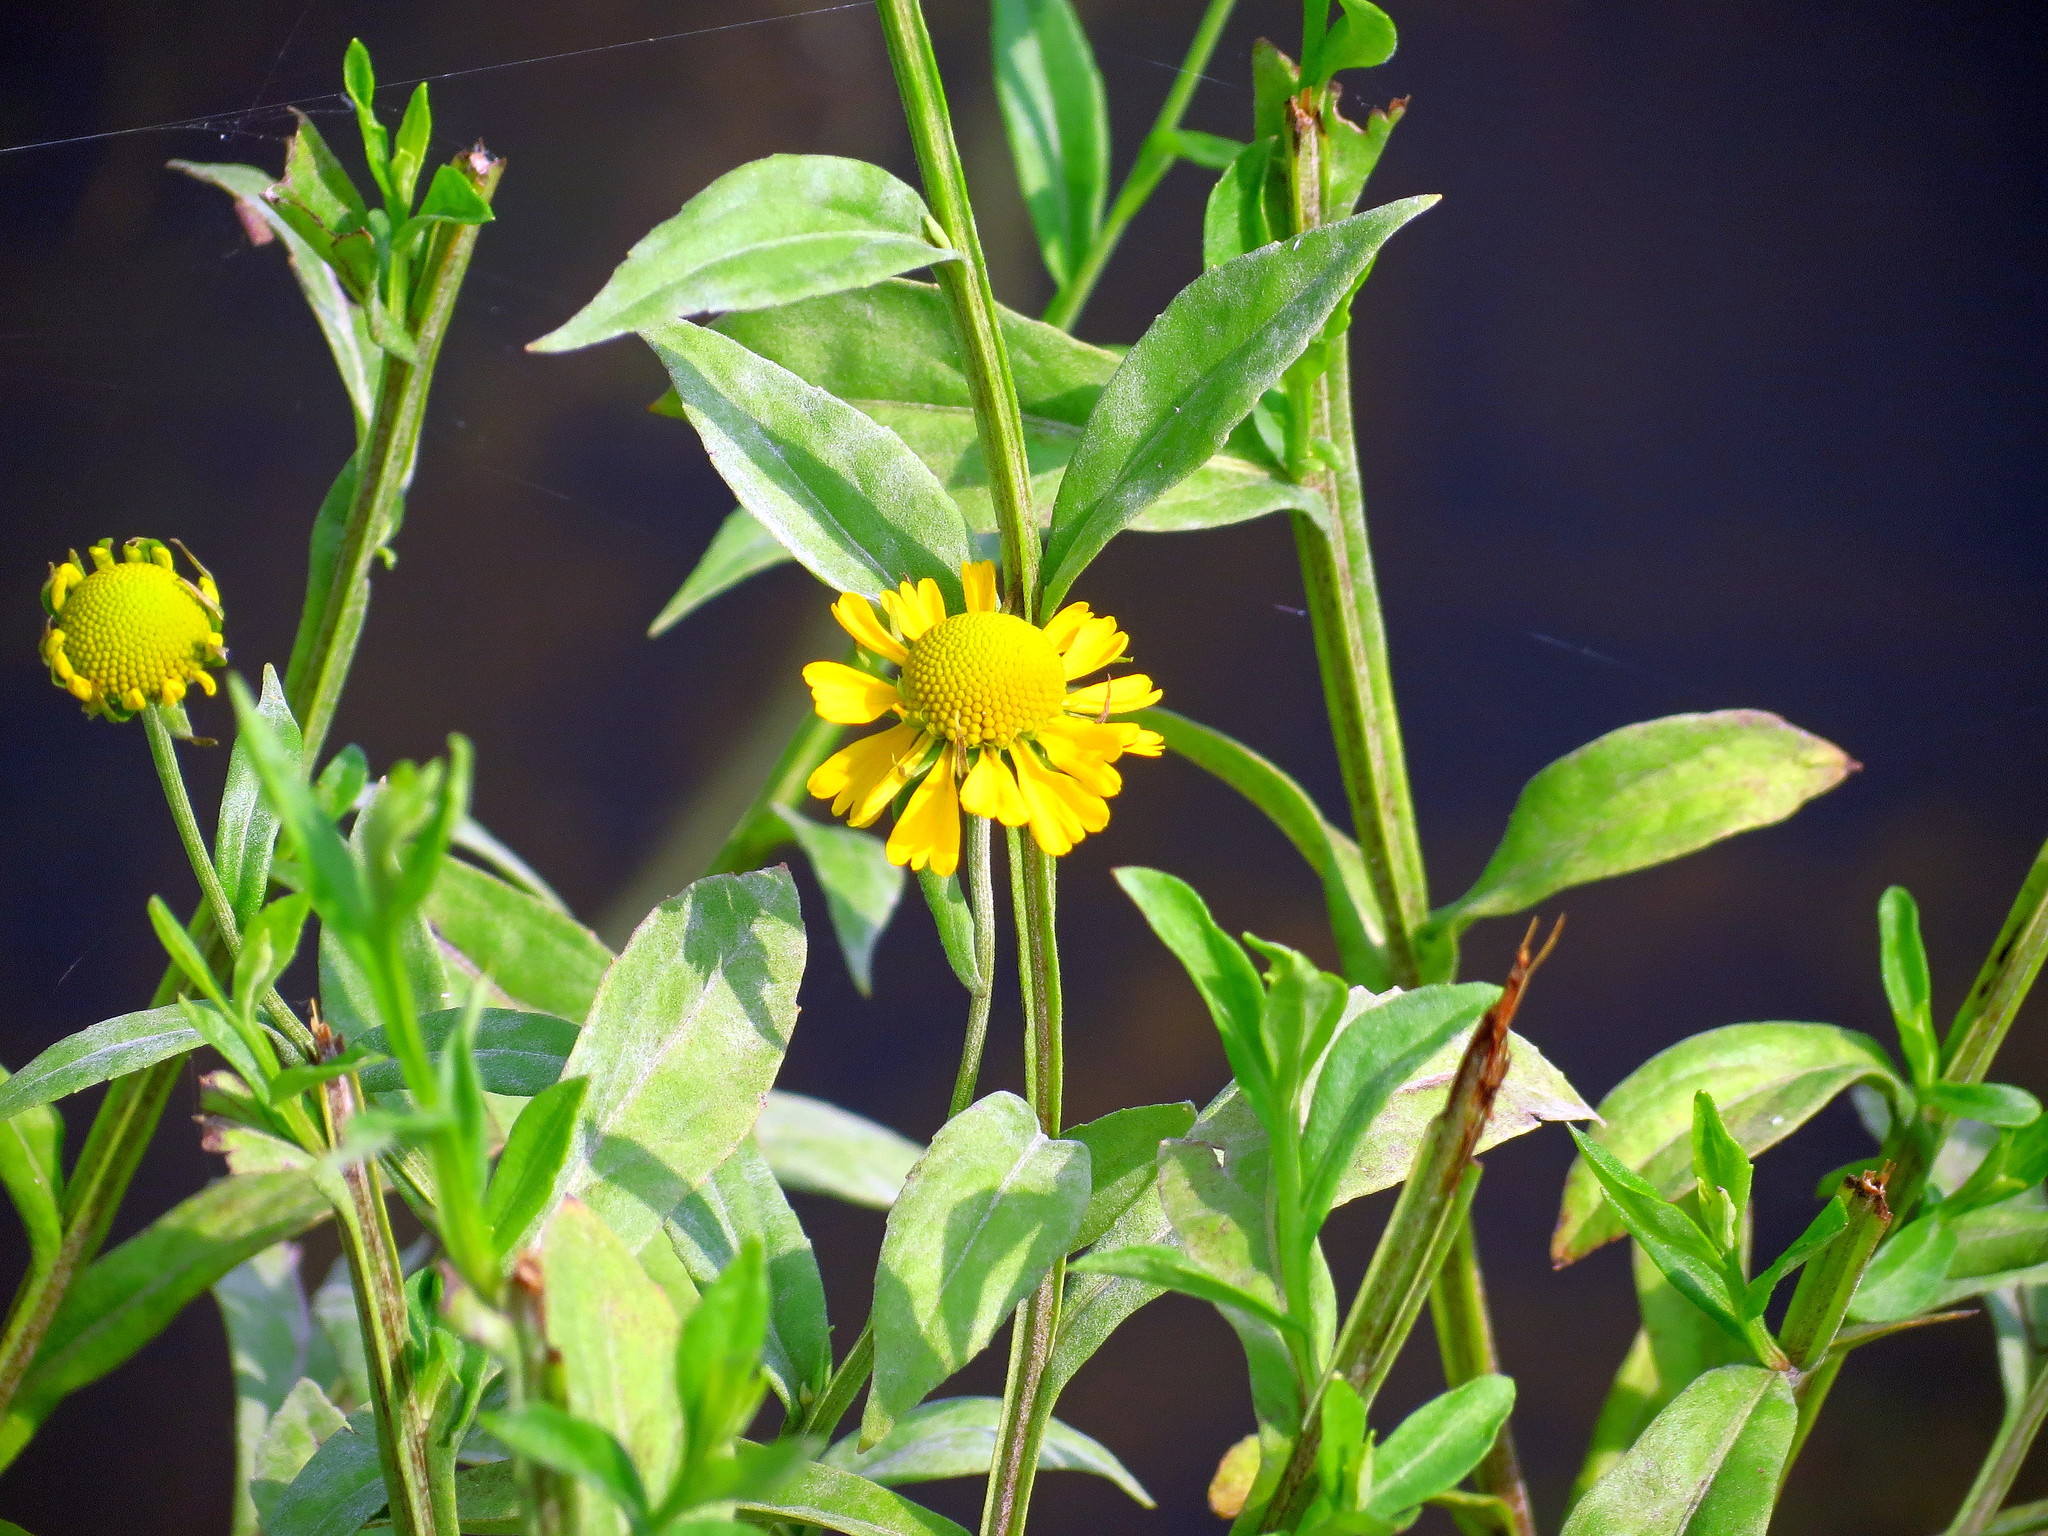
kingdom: Plantae
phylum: Tracheophyta
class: Magnoliopsida
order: Asterales
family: Asteraceae
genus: Helenium
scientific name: Helenium autumnale
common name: Sneezeweed
